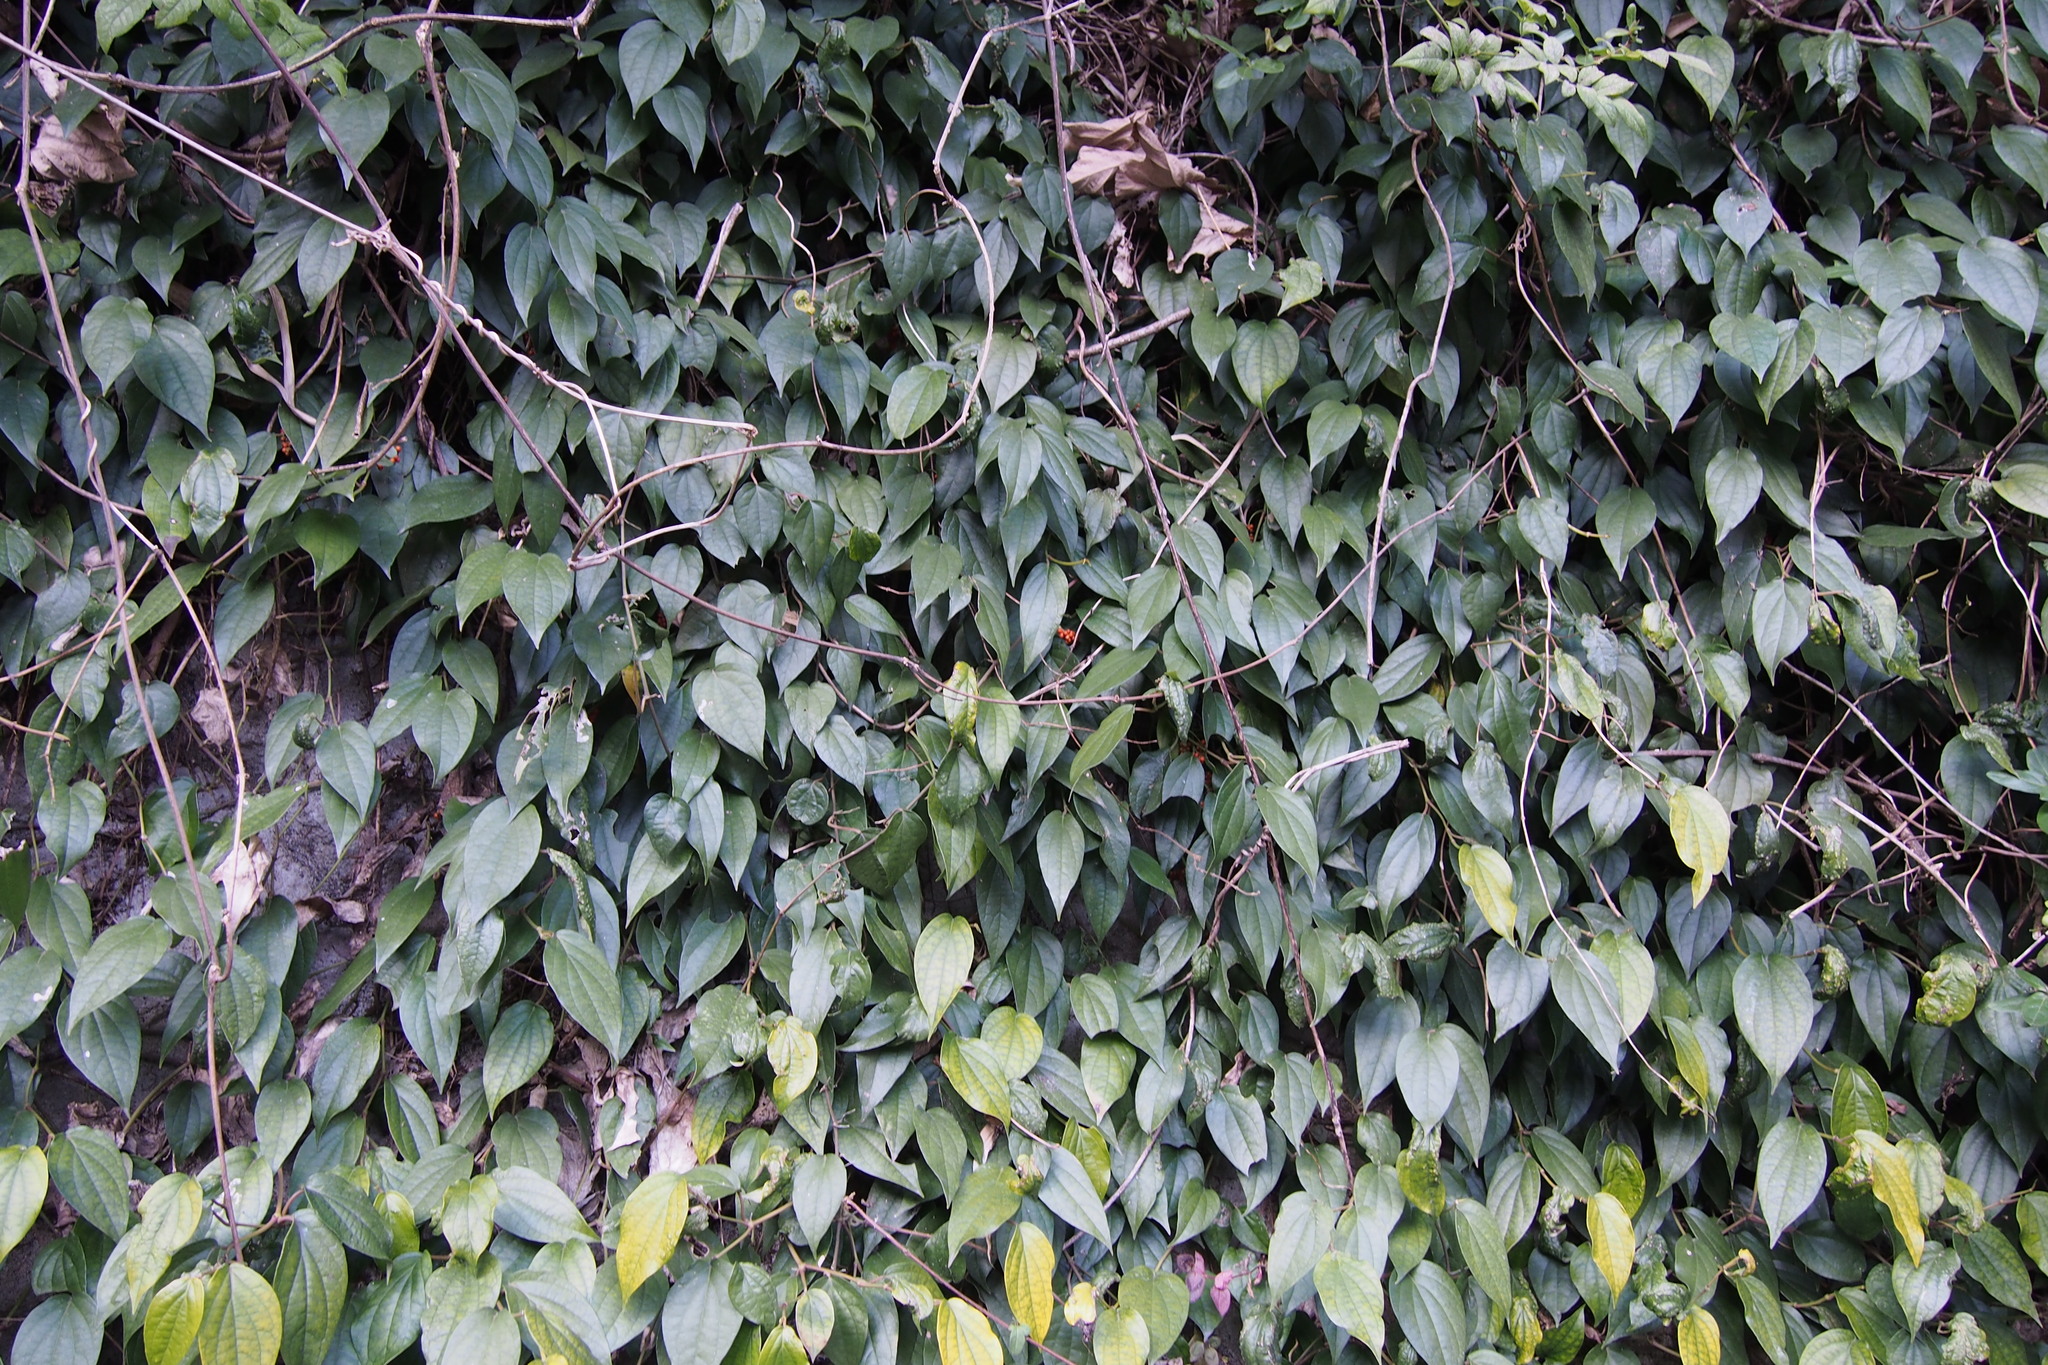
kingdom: Plantae
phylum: Tracheophyta
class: Magnoliopsida
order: Piperales
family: Piperaceae
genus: Piper
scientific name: Piper kadsura
